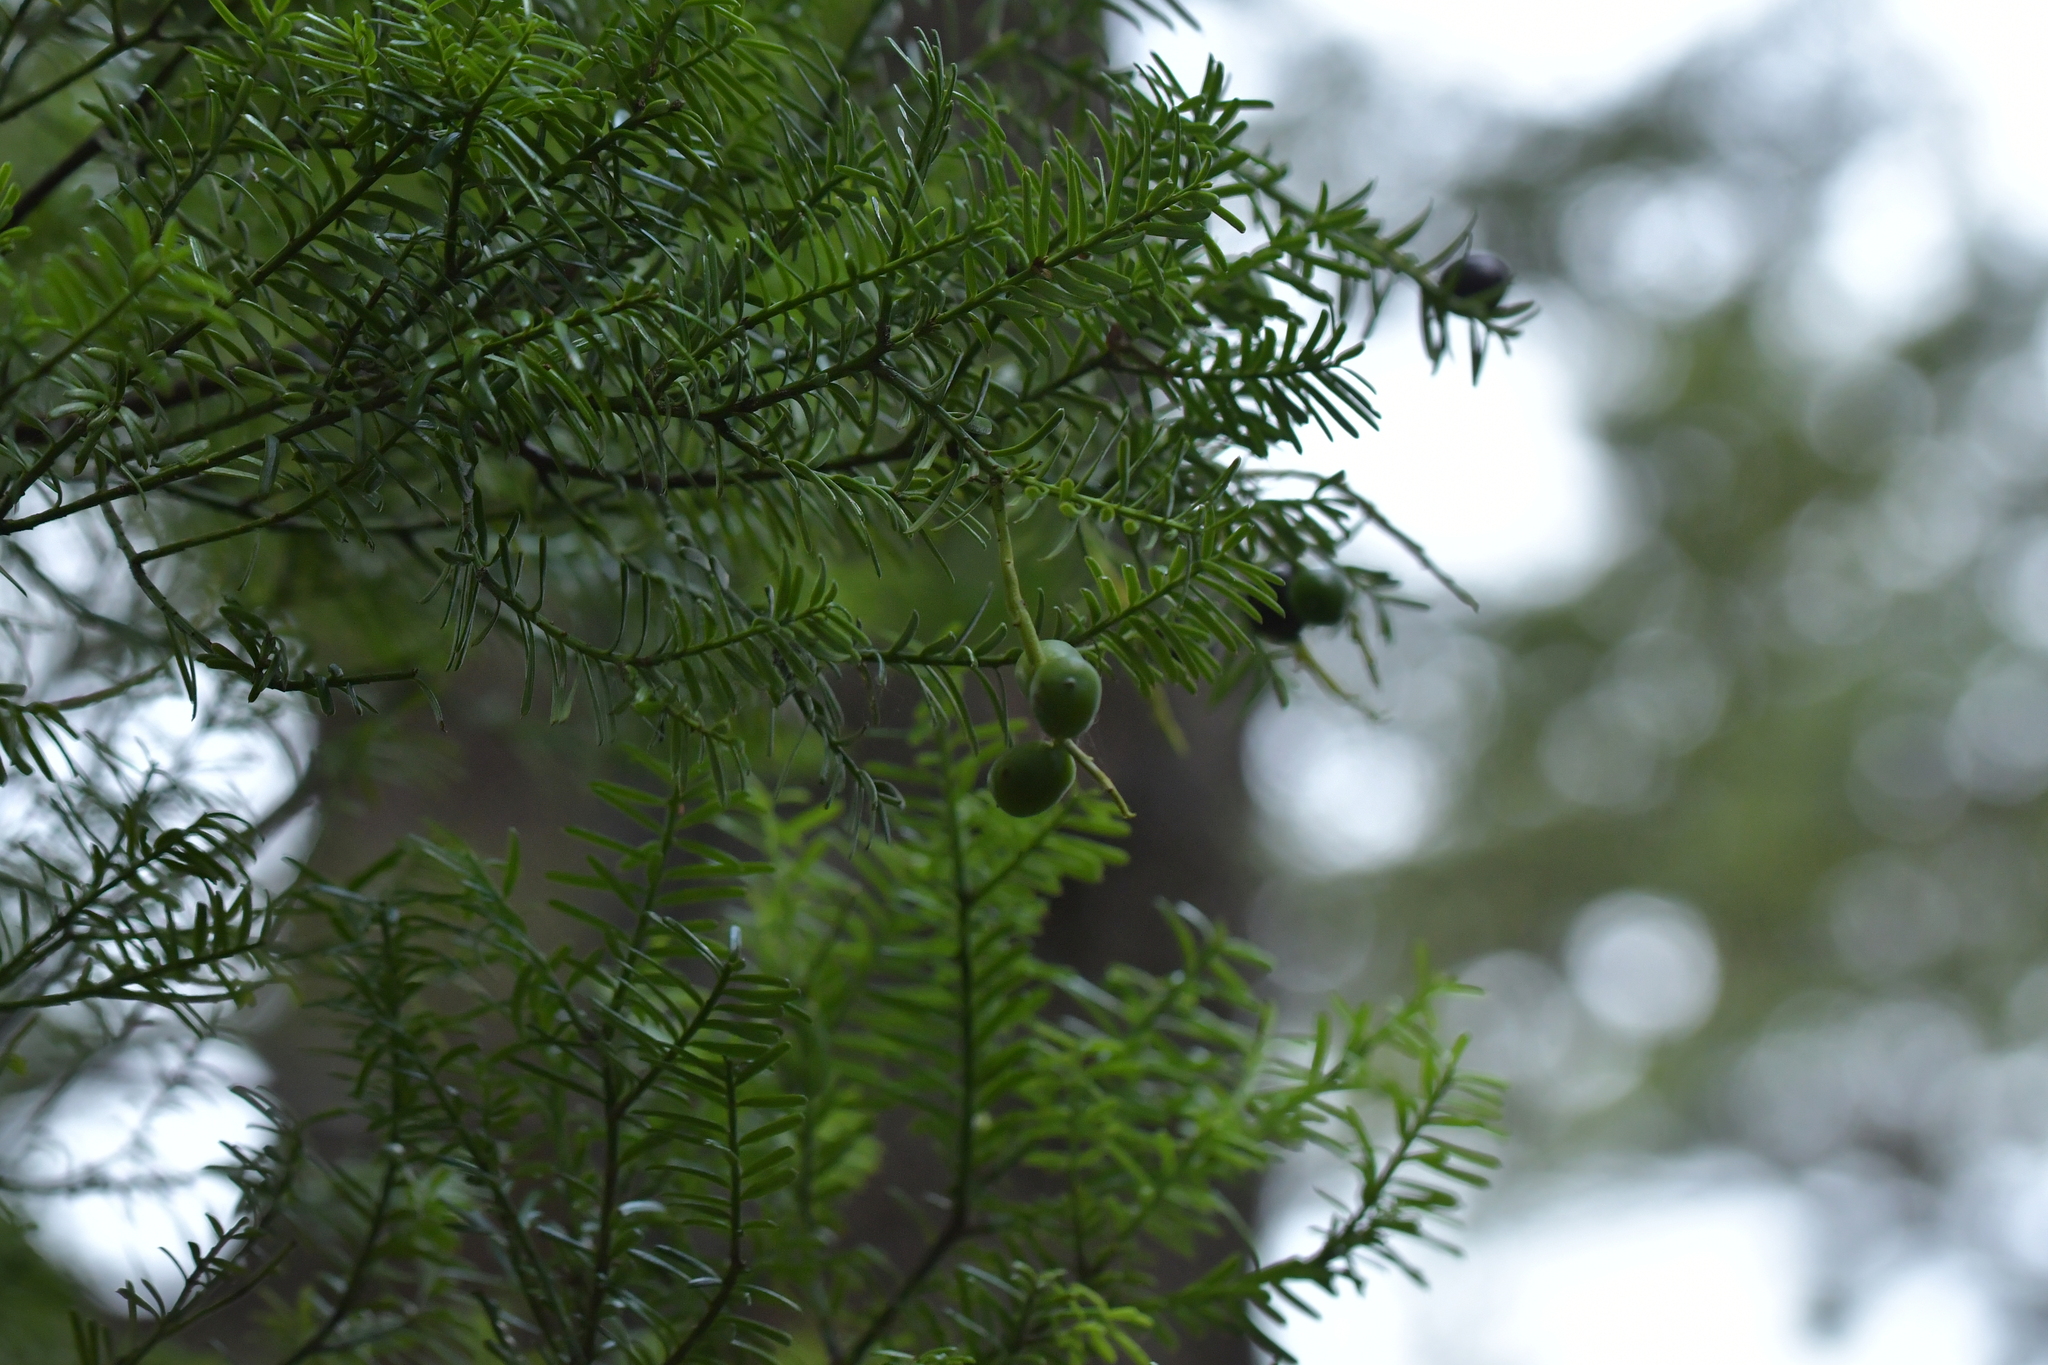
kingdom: Plantae
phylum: Tracheophyta
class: Pinopsida
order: Pinales
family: Podocarpaceae
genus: Prumnopitys
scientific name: Prumnopitys taxifolia
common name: Matai
